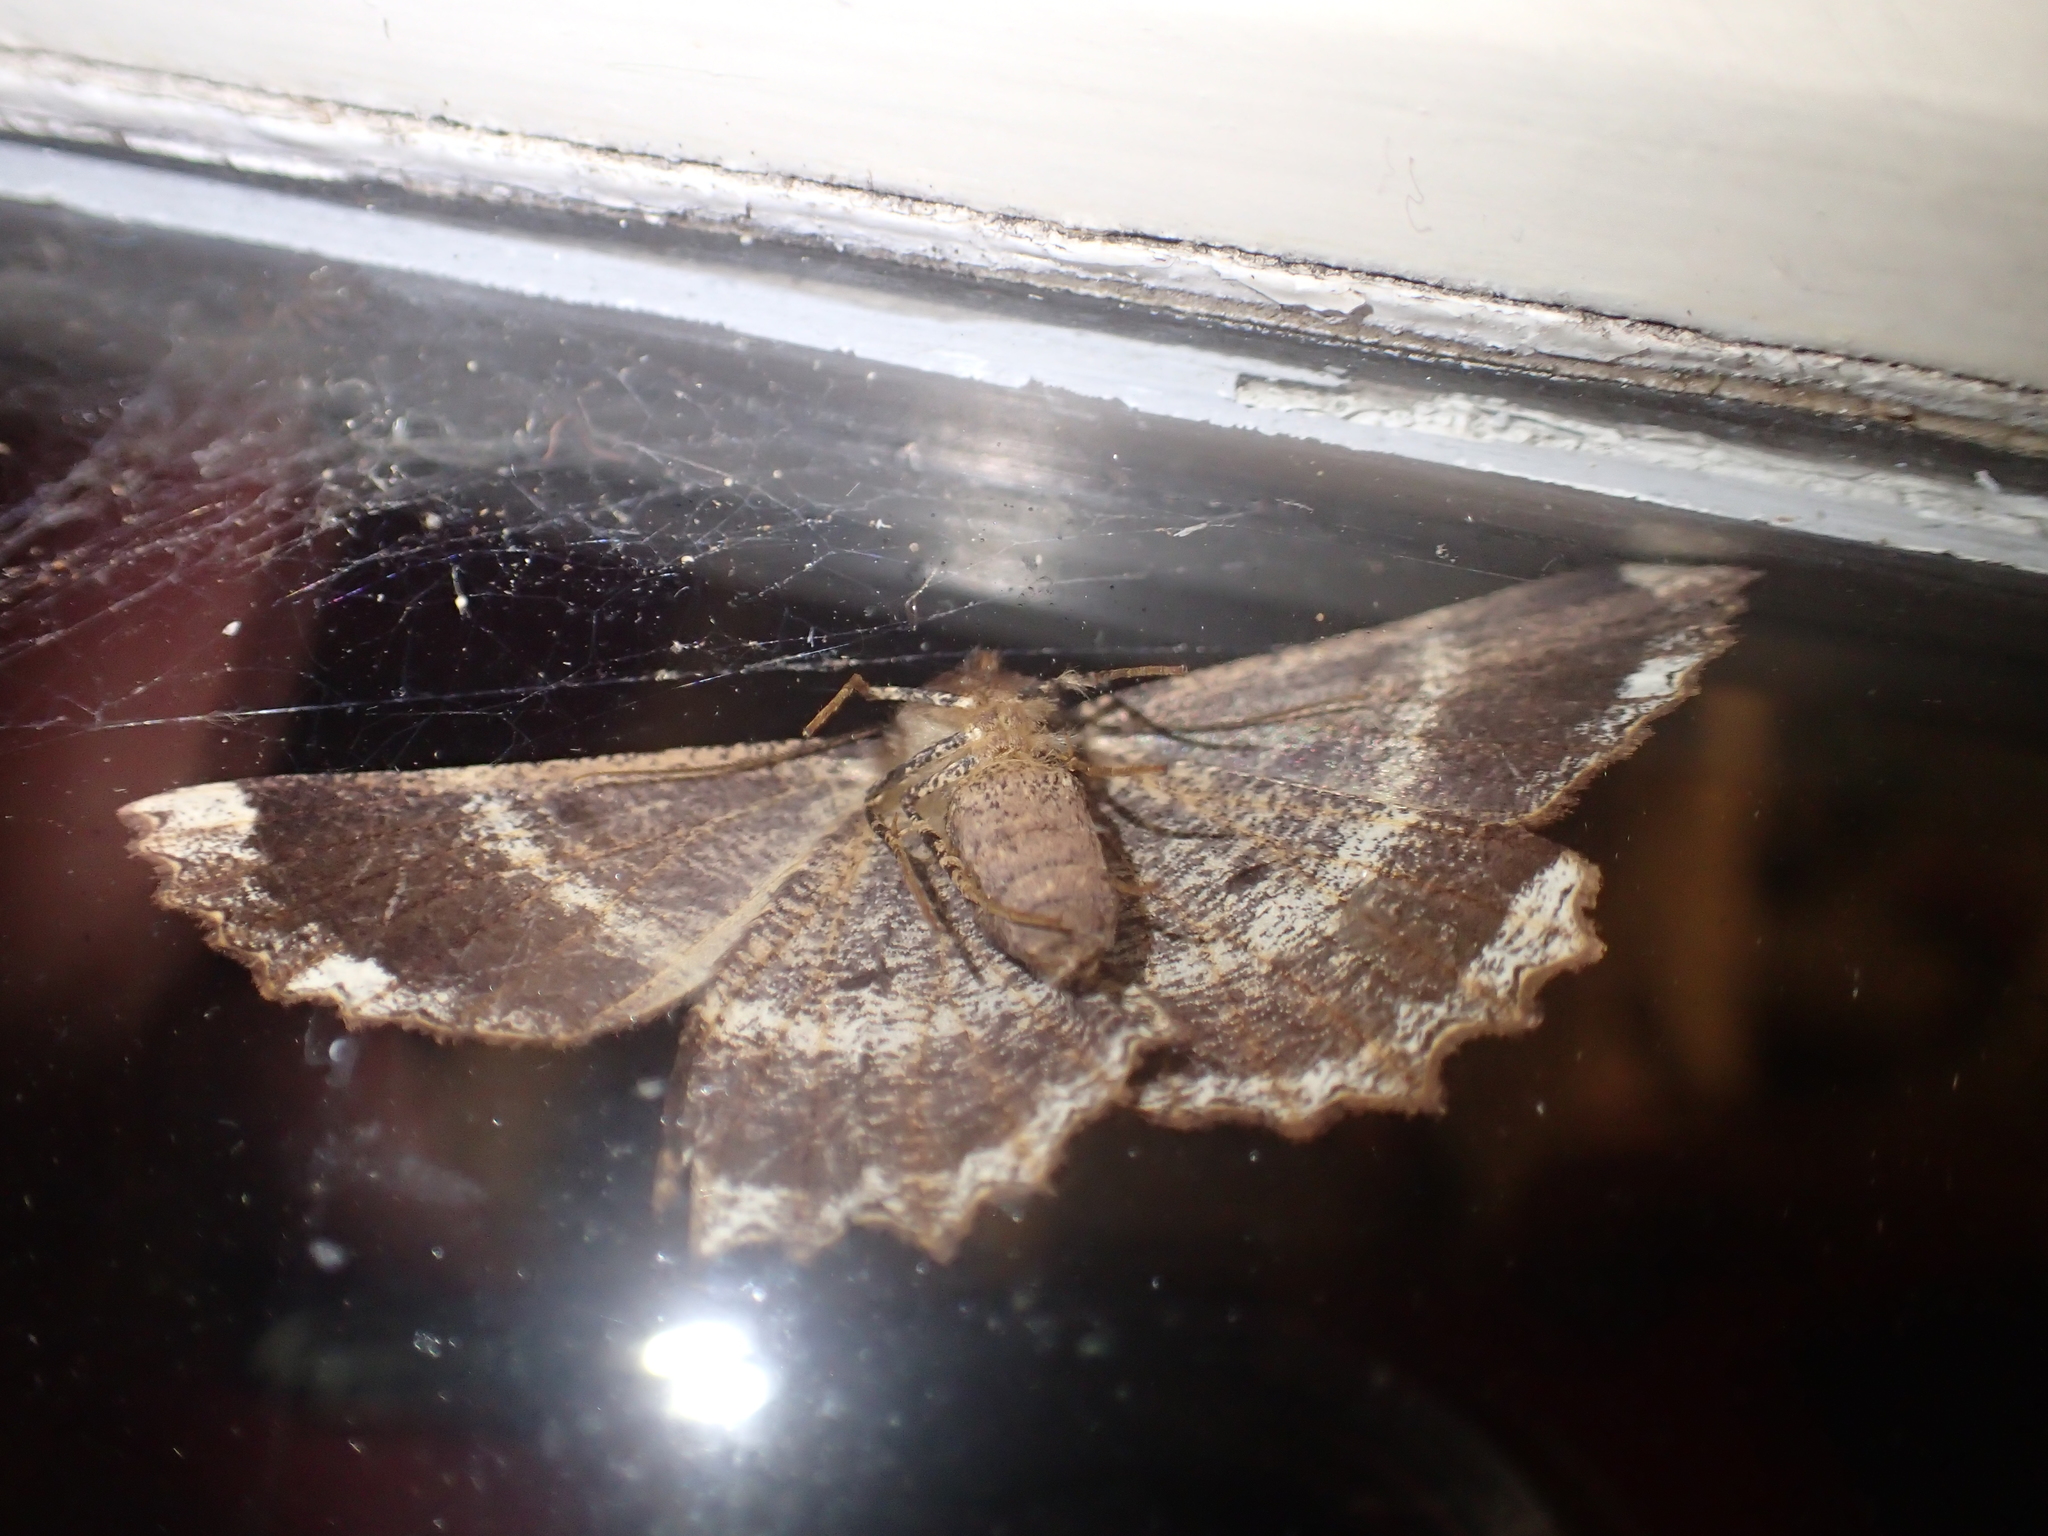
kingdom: Animalia
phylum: Arthropoda
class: Insecta
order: Lepidoptera
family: Geometridae
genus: Gellonia
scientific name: Gellonia dejectaria
